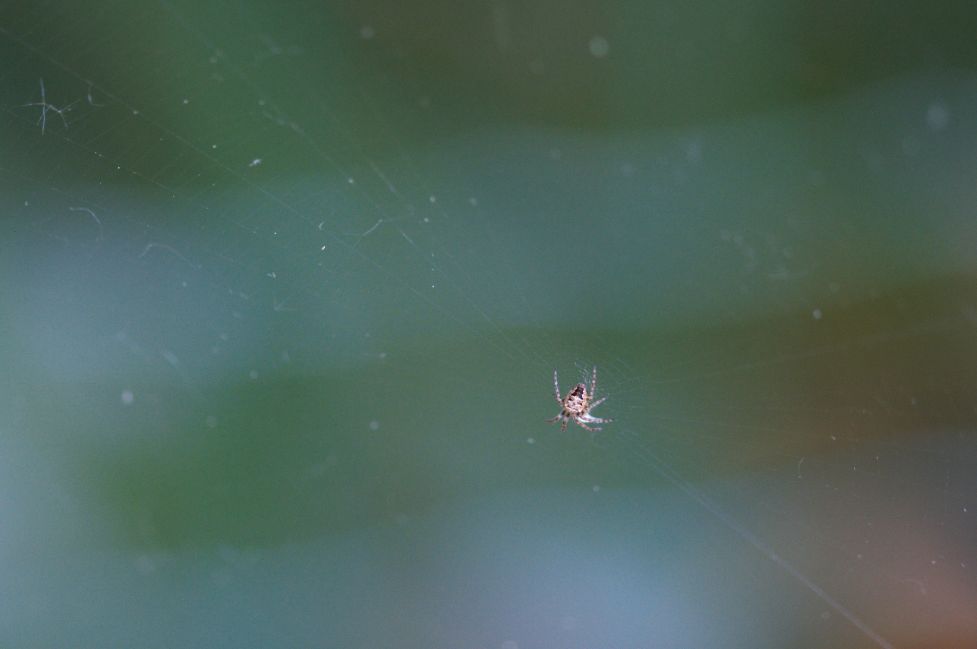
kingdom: Animalia
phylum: Arthropoda
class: Arachnida
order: Araneae
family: Araneidae
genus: Zilla
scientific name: Zilla diodia
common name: Zilla diodia
